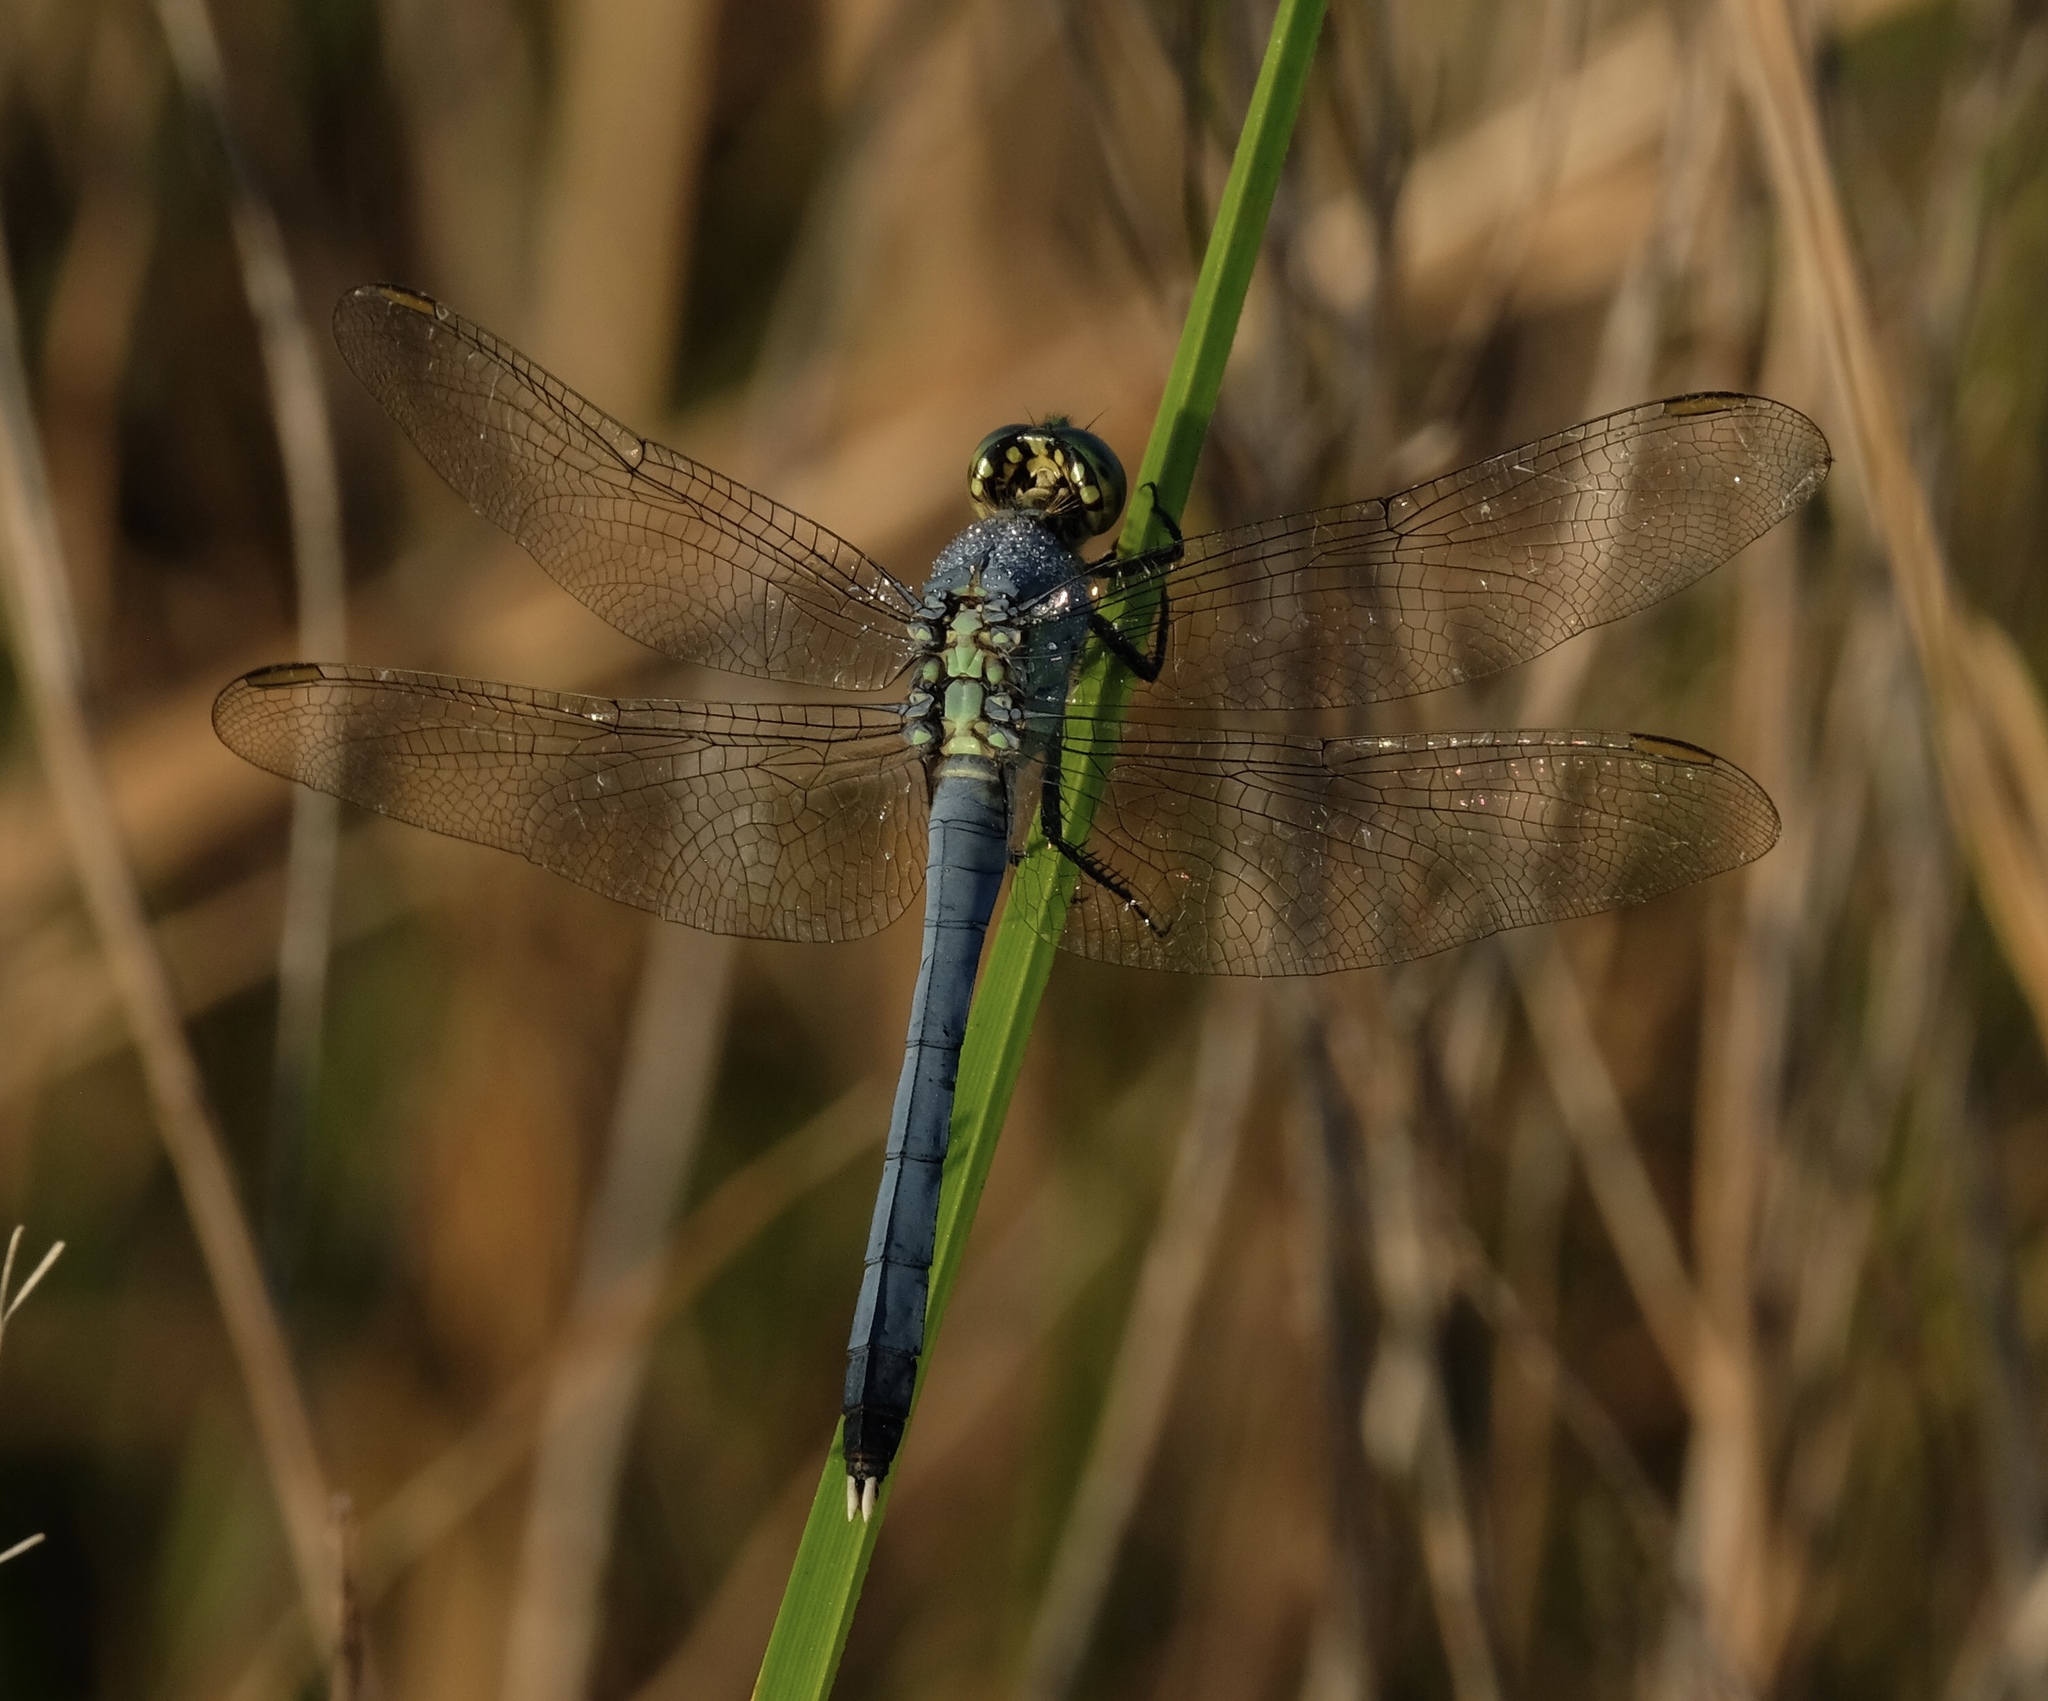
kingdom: Animalia
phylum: Arthropoda
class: Insecta
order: Odonata
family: Libellulidae
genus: Erythemis
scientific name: Erythemis simplicicollis
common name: Eastern pondhawk
